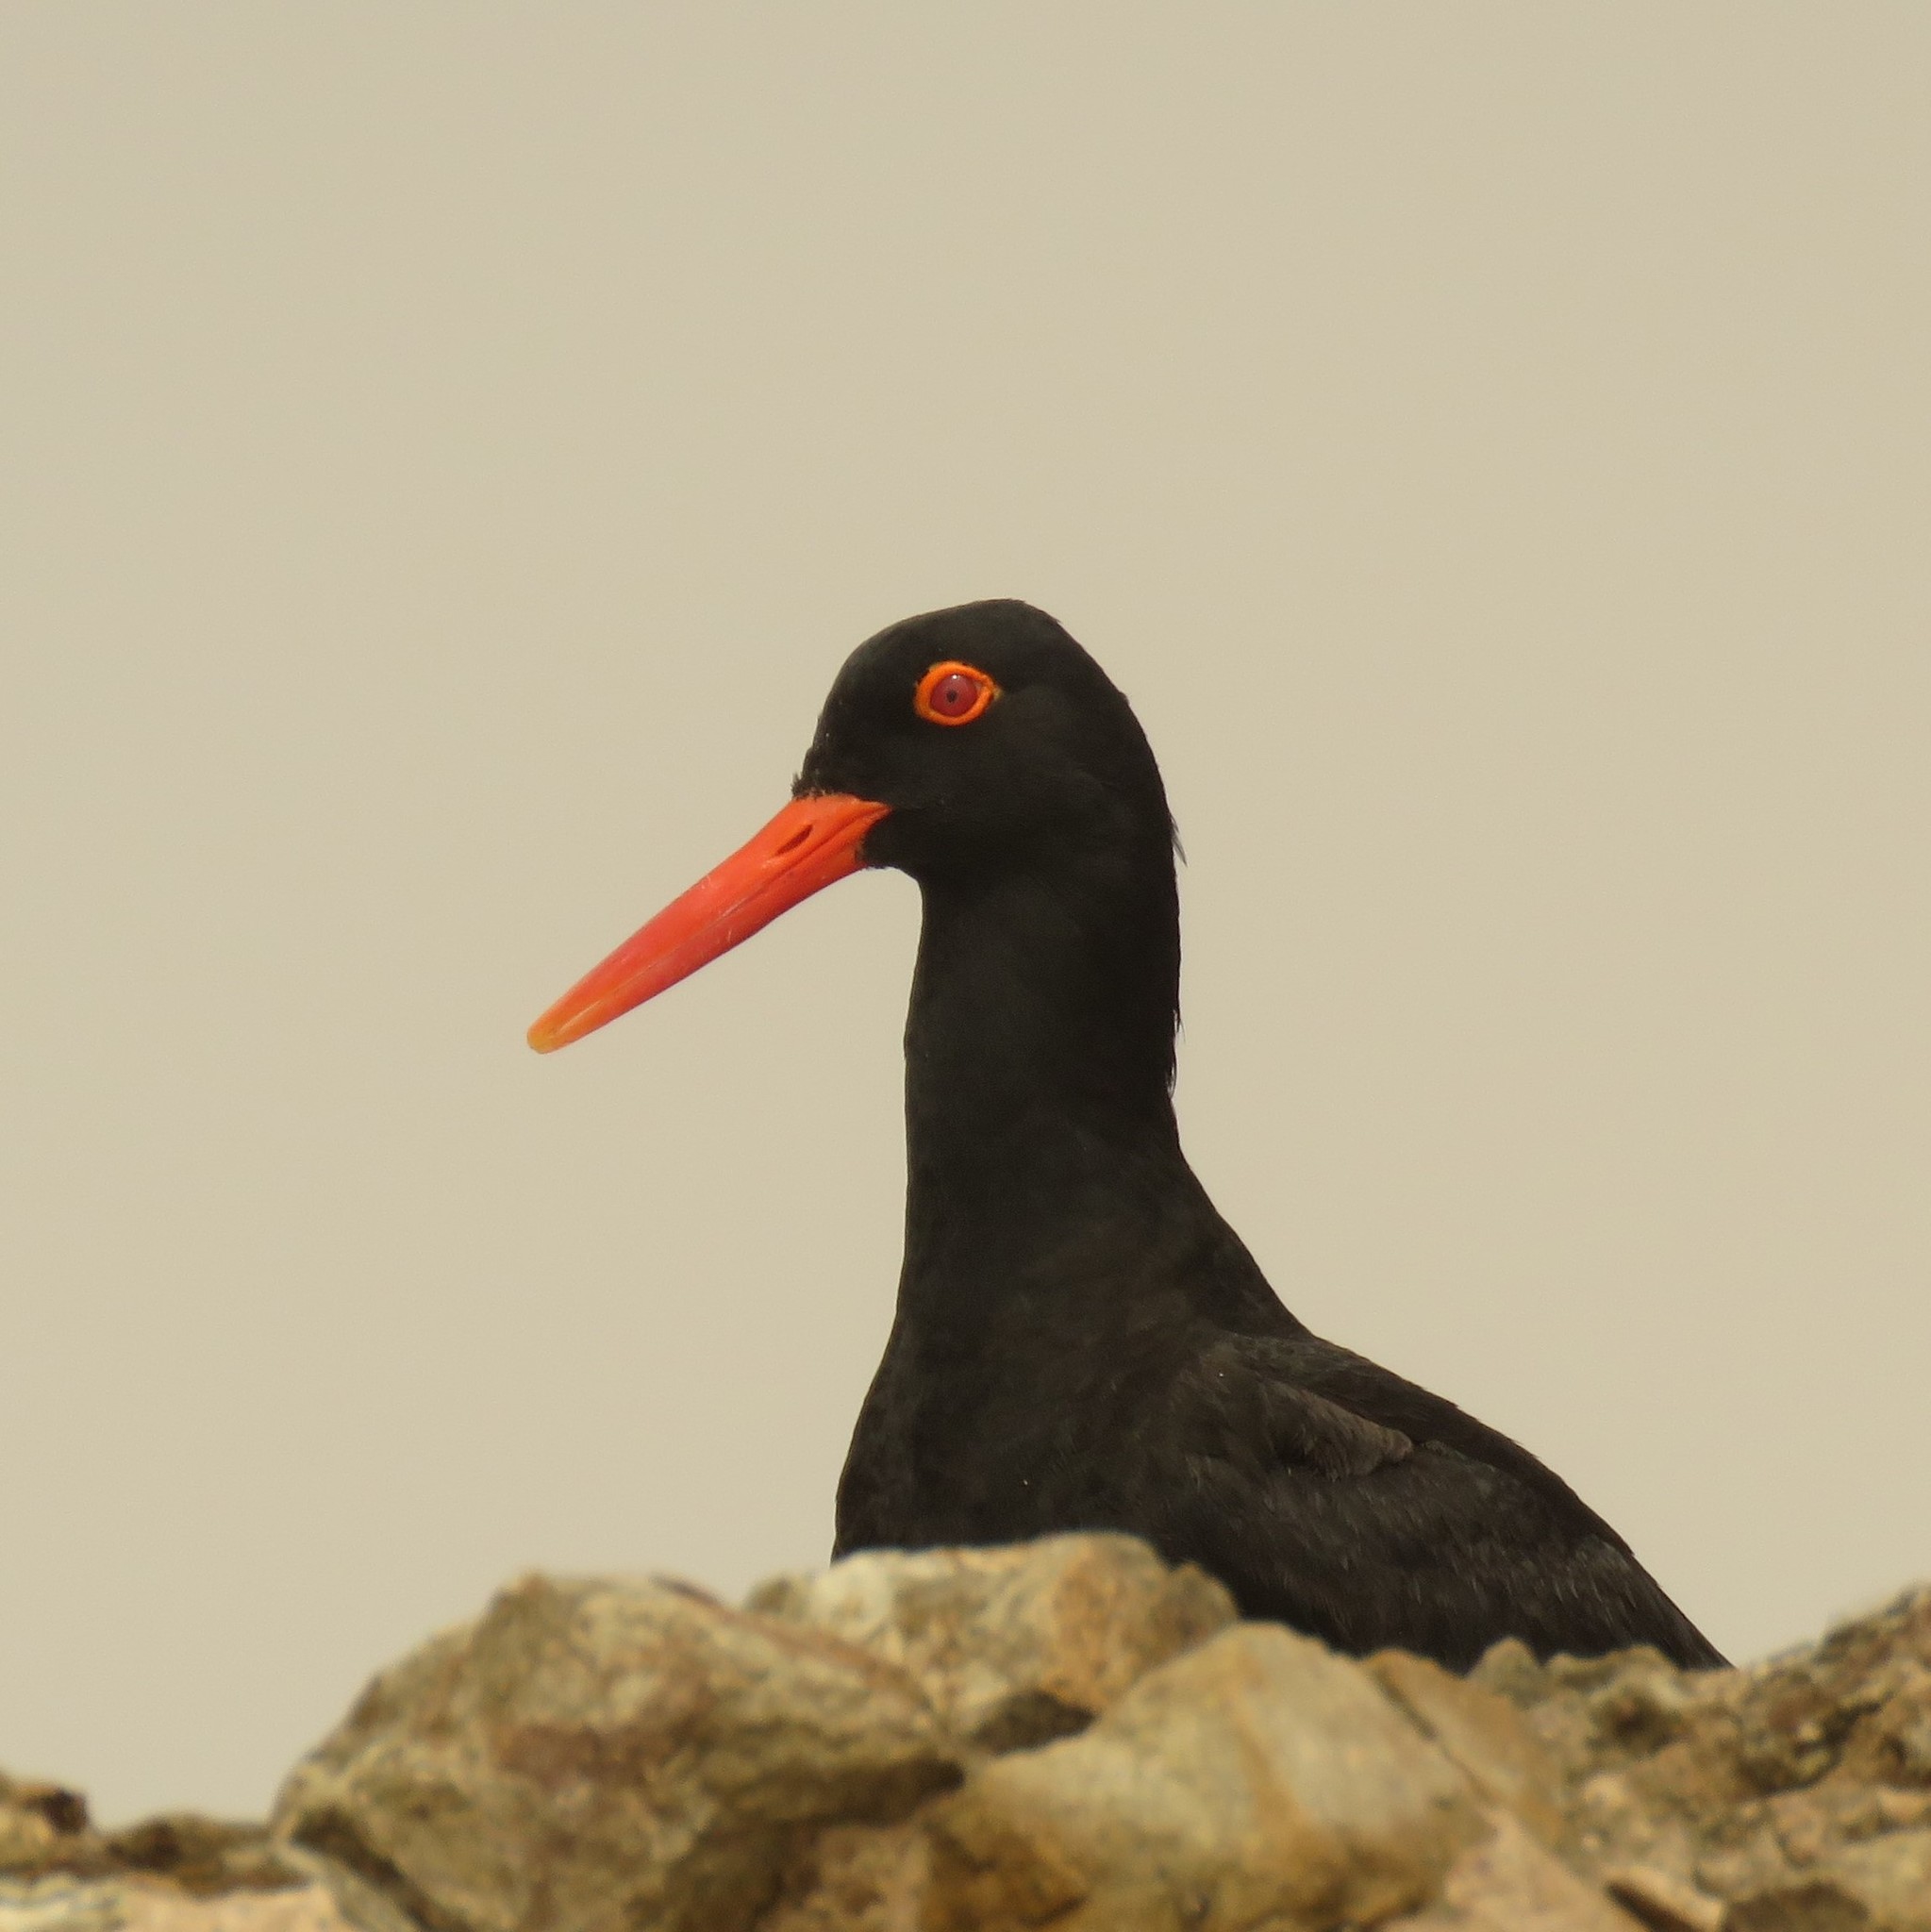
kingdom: Animalia
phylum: Chordata
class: Aves
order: Charadriiformes
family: Haematopodidae
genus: Haematopus
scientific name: Haematopus moquini
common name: African oystercatcher
